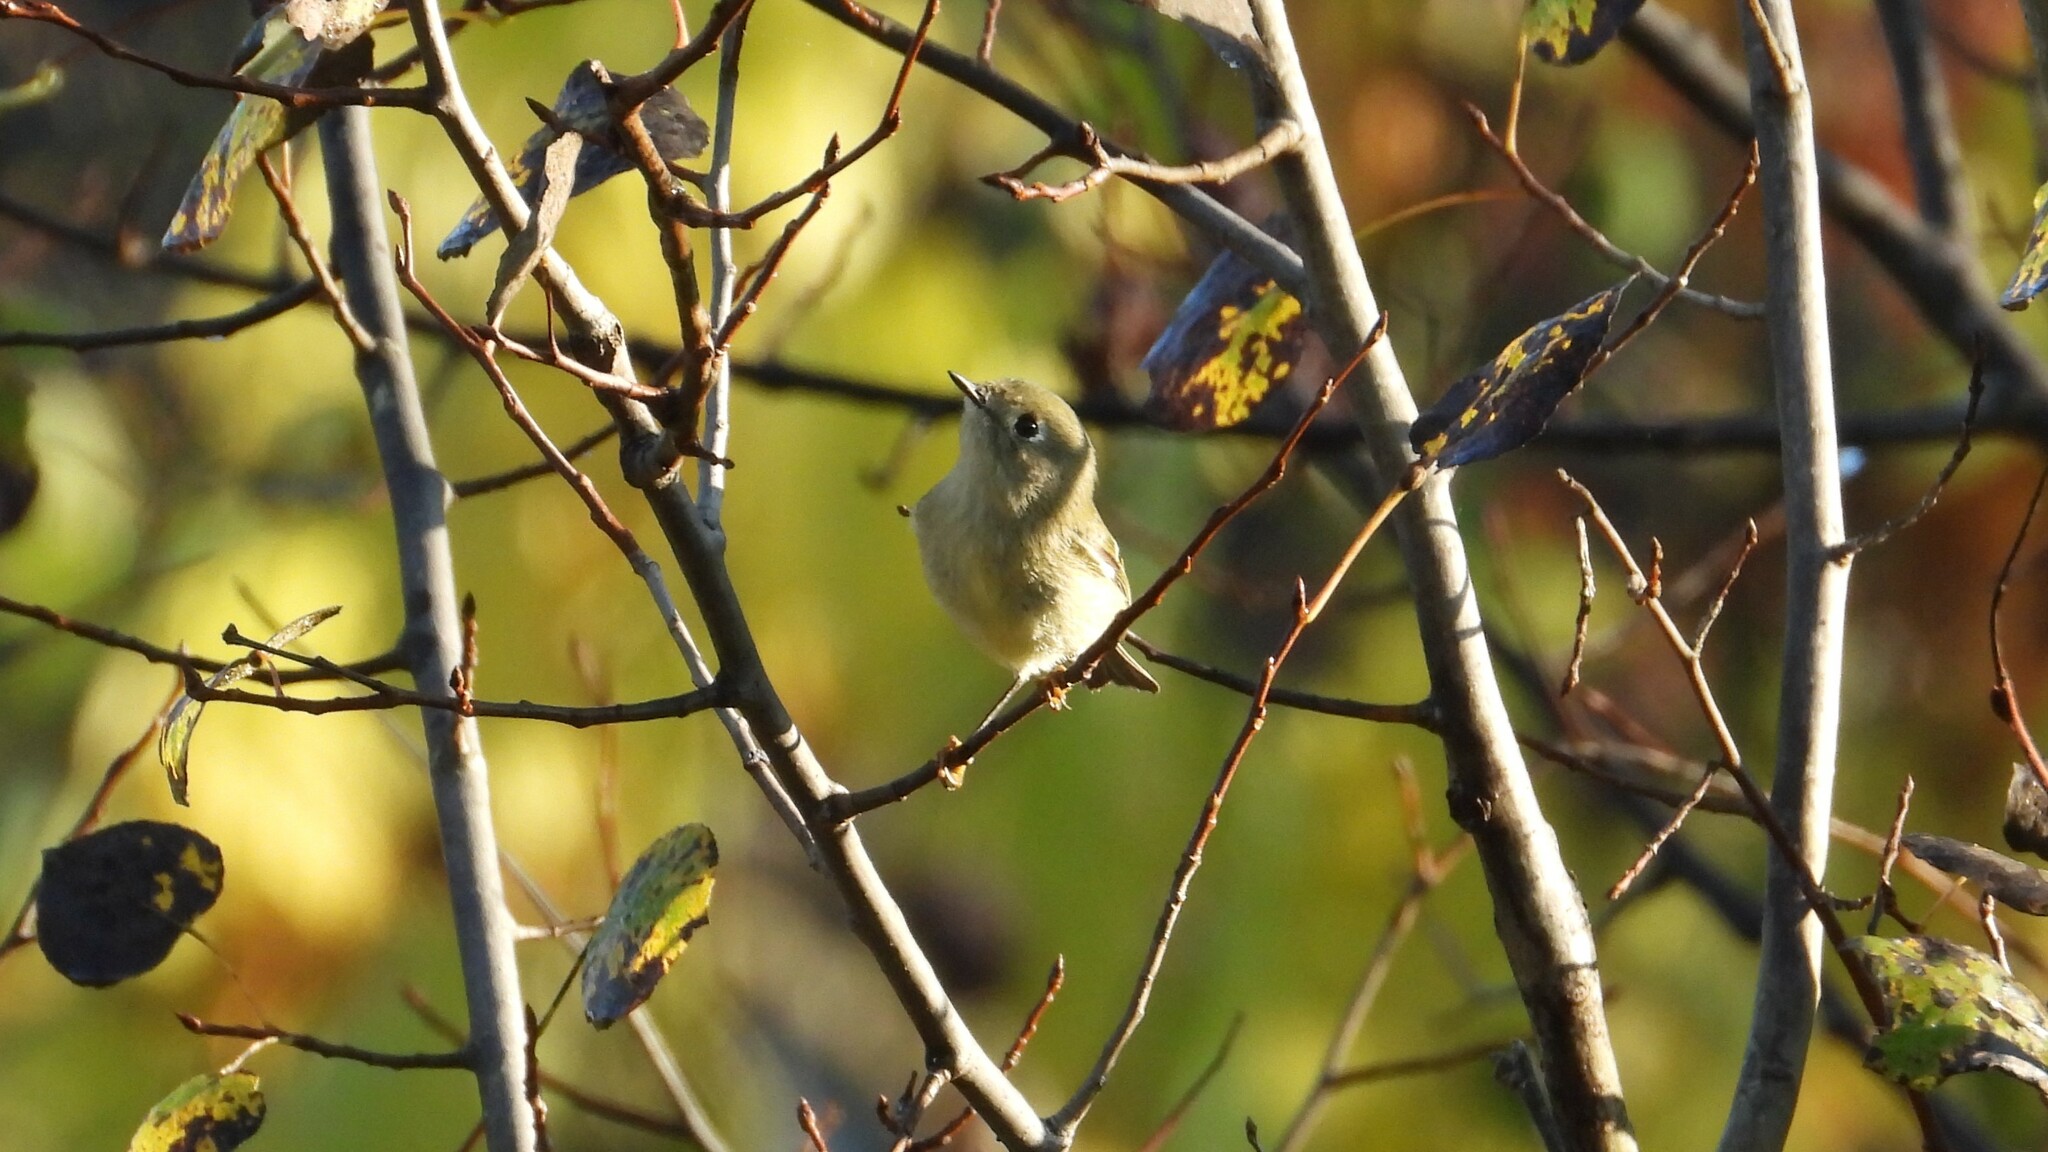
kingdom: Animalia
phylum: Chordata
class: Aves
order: Passeriformes
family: Regulidae
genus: Regulus
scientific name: Regulus calendula
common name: Ruby-crowned kinglet
